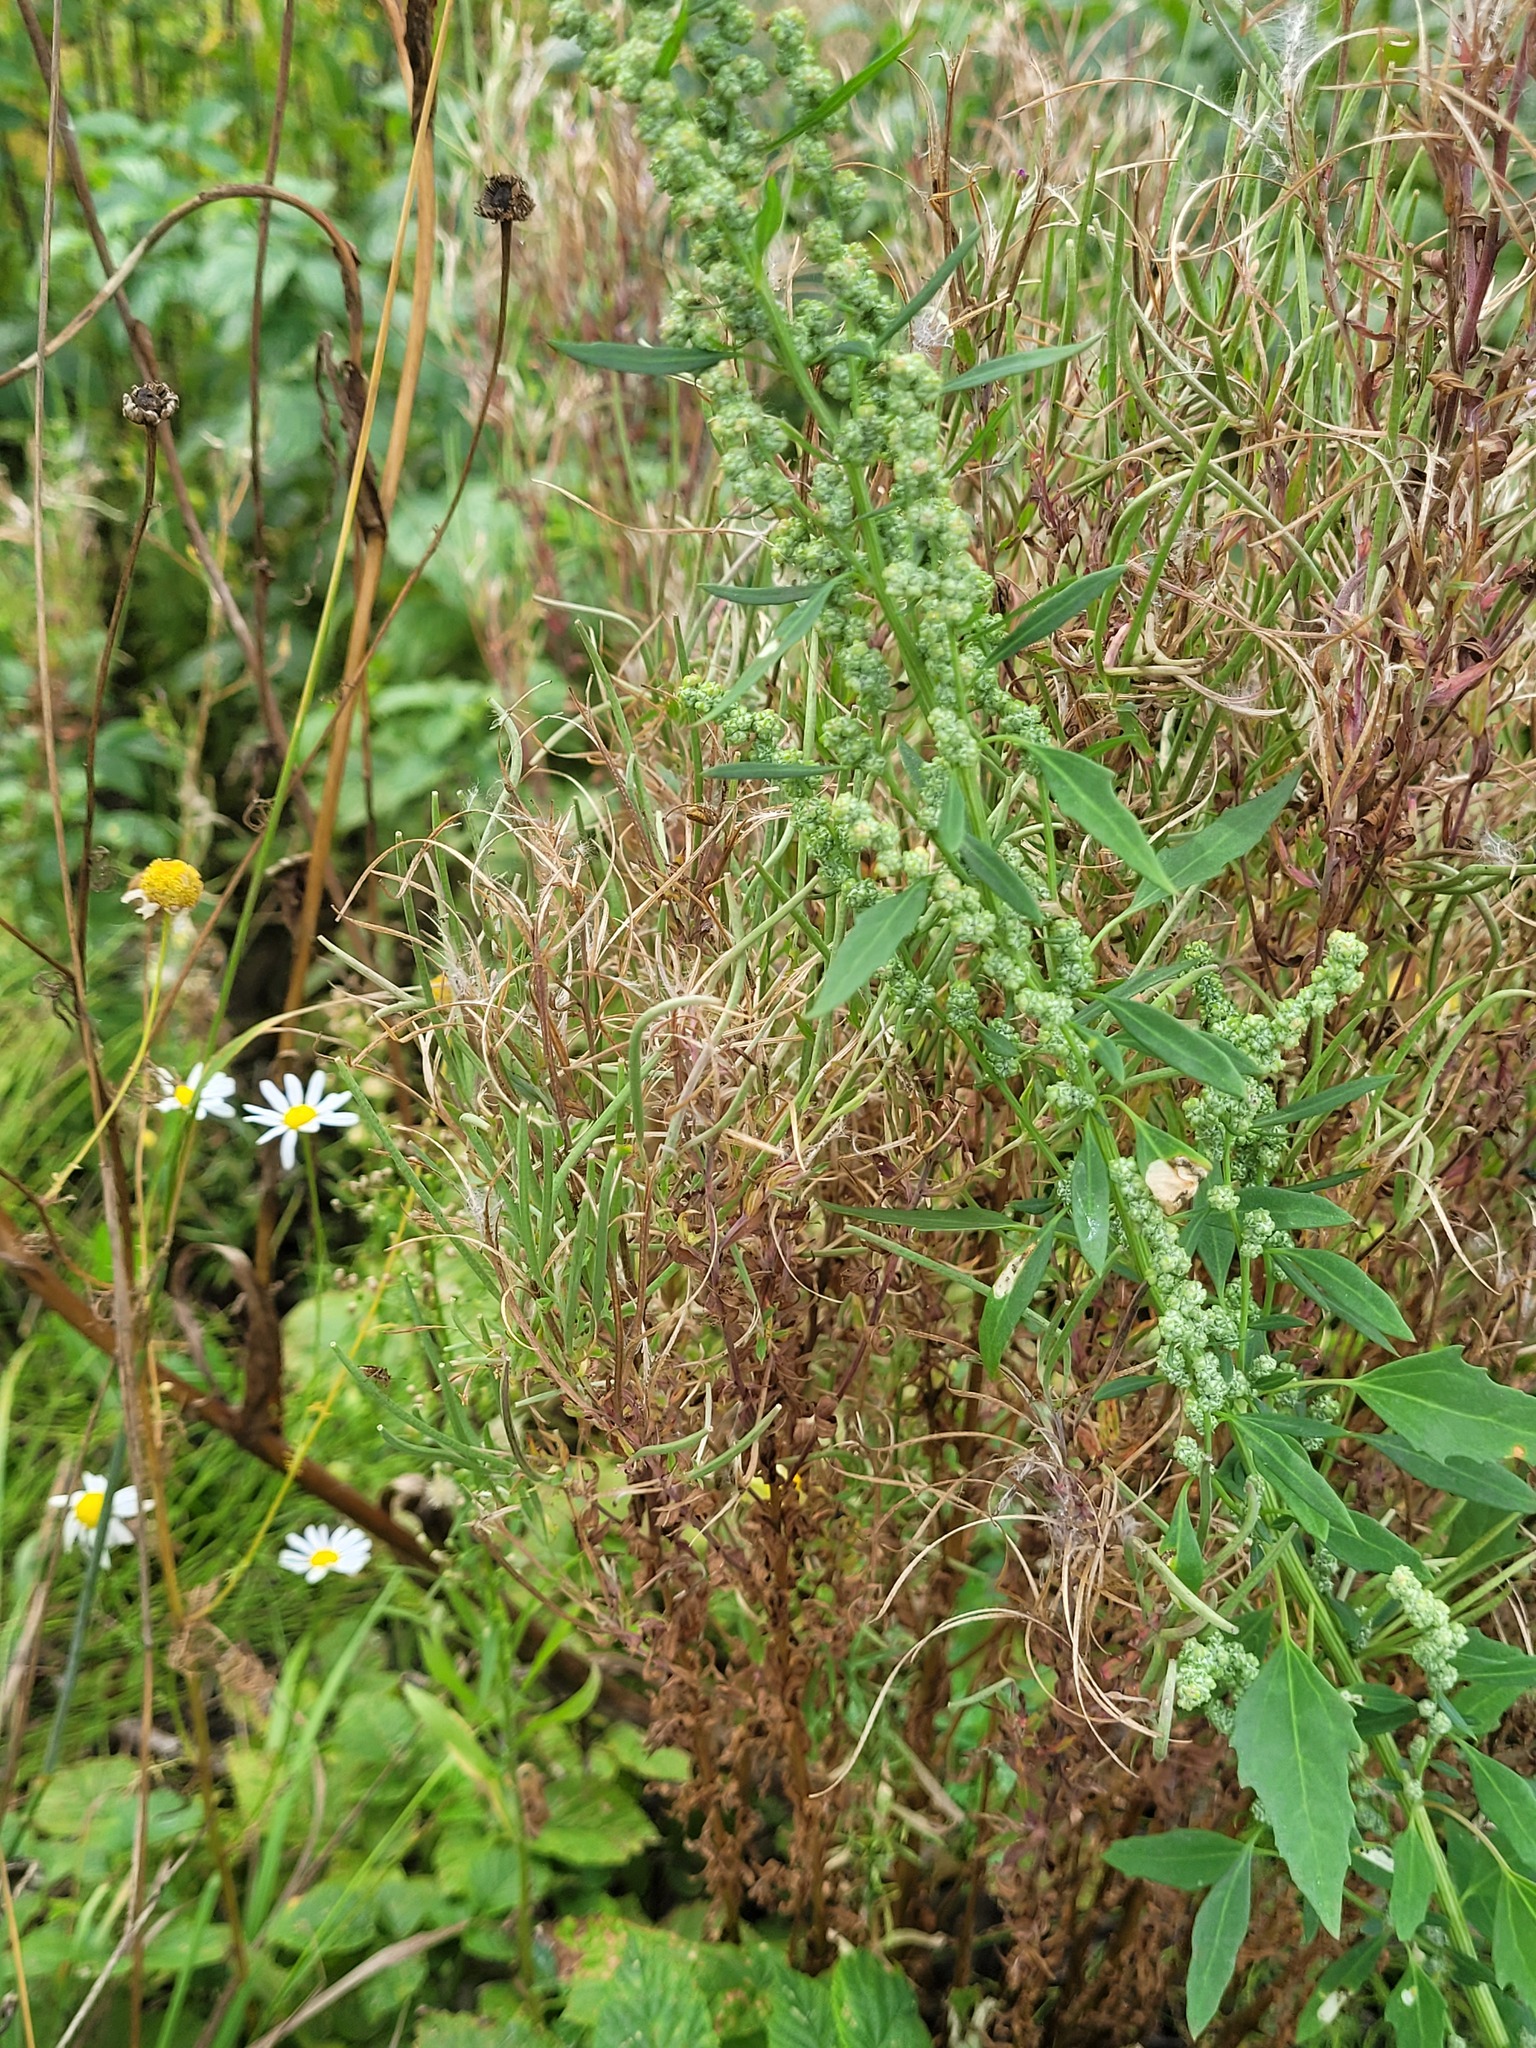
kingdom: Plantae
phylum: Tracheophyta
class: Magnoliopsida
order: Caryophyllales
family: Amaranthaceae
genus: Chenopodium
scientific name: Chenopodium album
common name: Fat-hen
